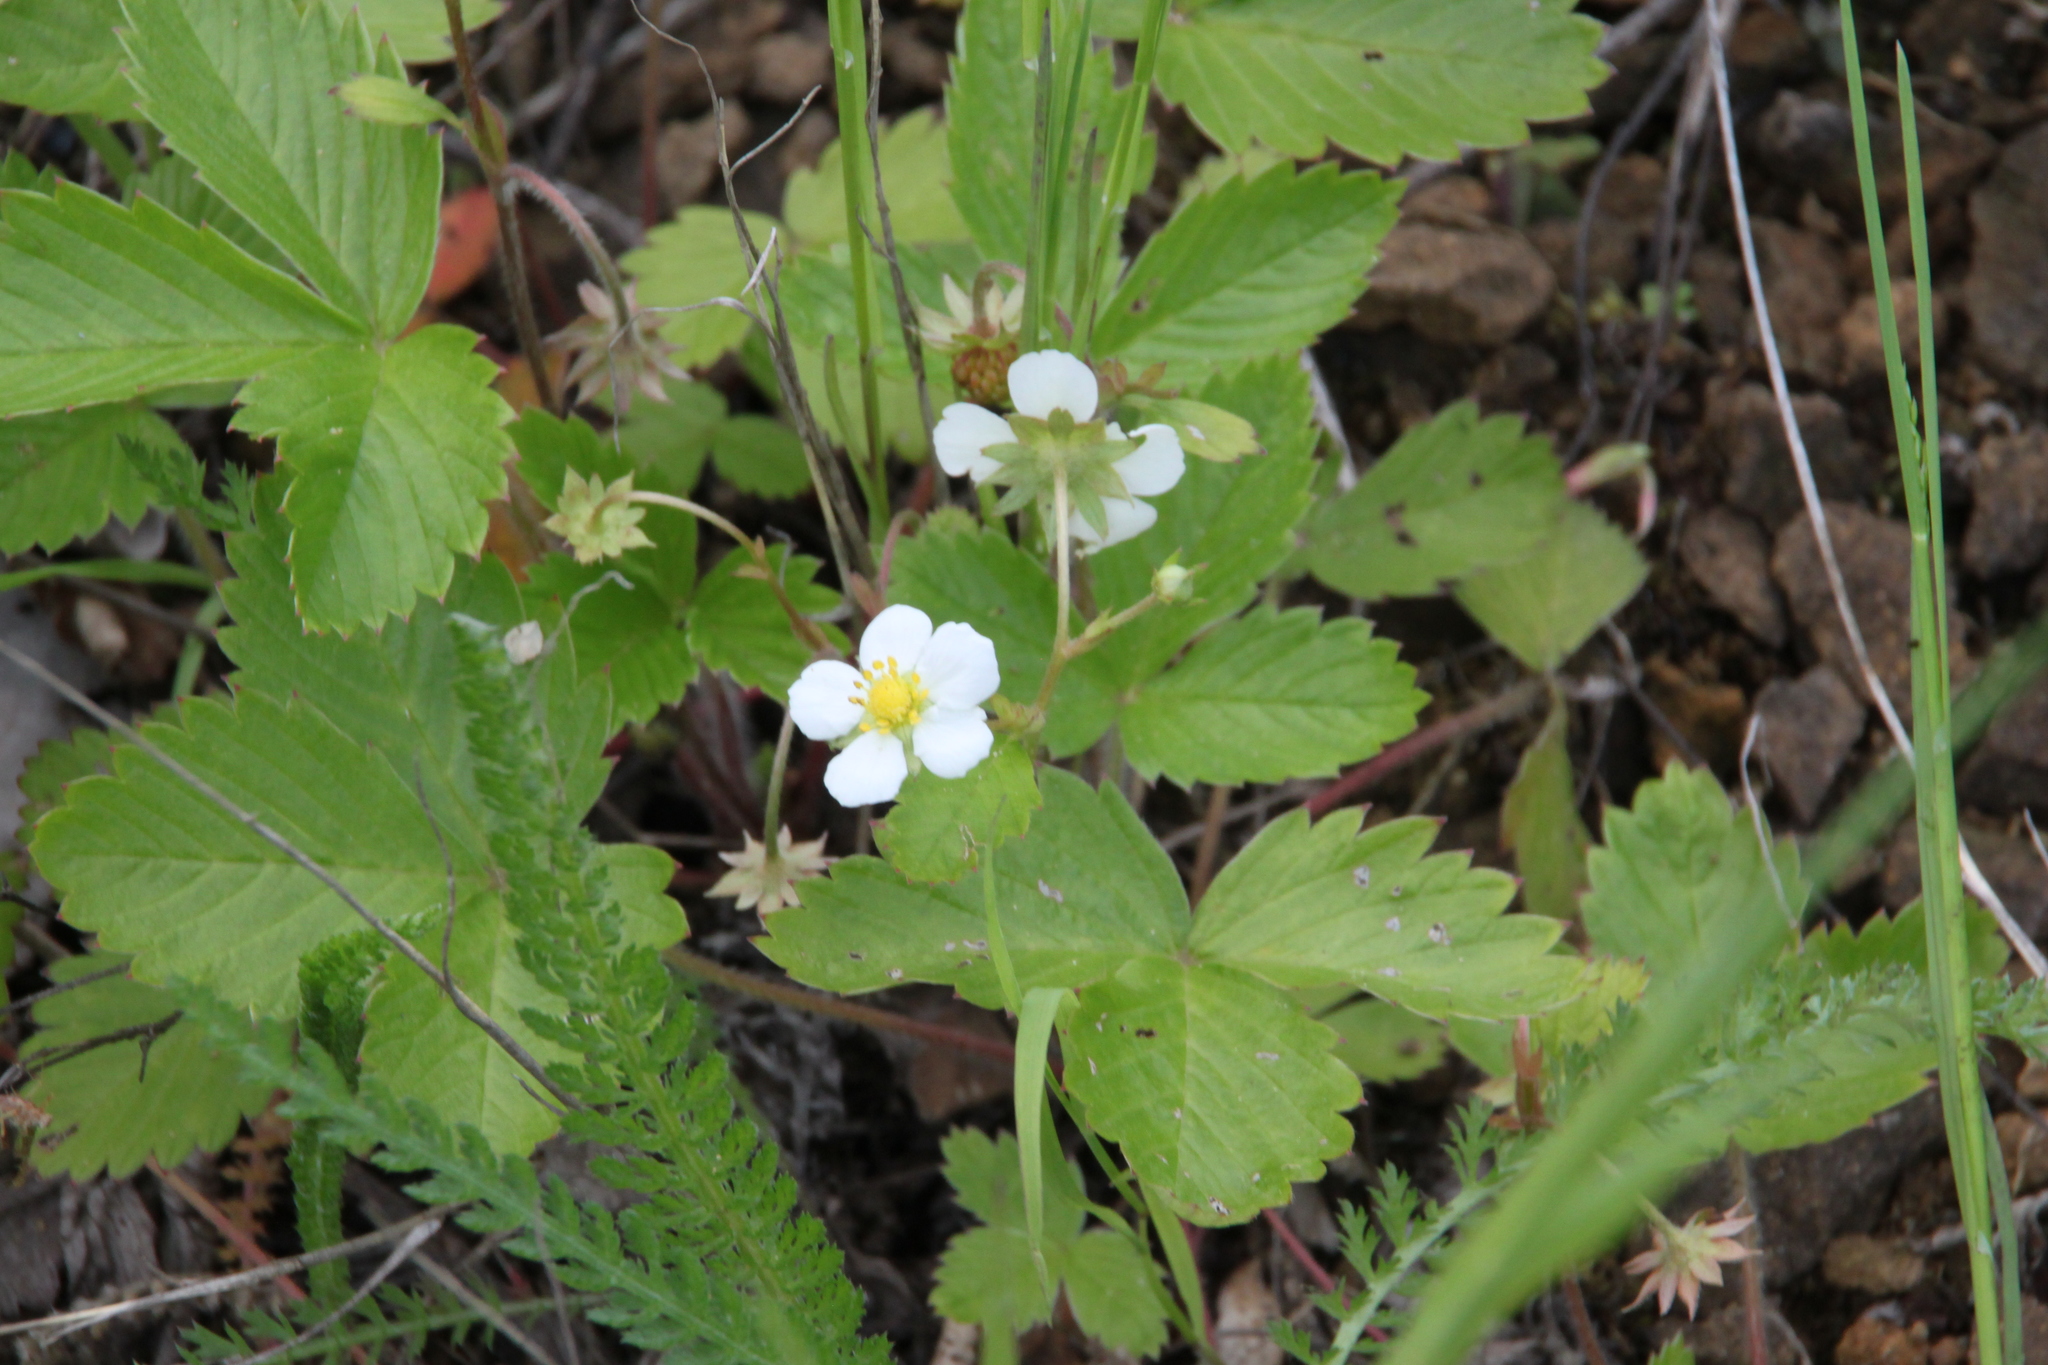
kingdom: Plantae
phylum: Tracheophyta
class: Magnoliopsida
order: Rosales
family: Rosaceae
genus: Fragaria
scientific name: Fragaria vesca
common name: Wild strawberry
